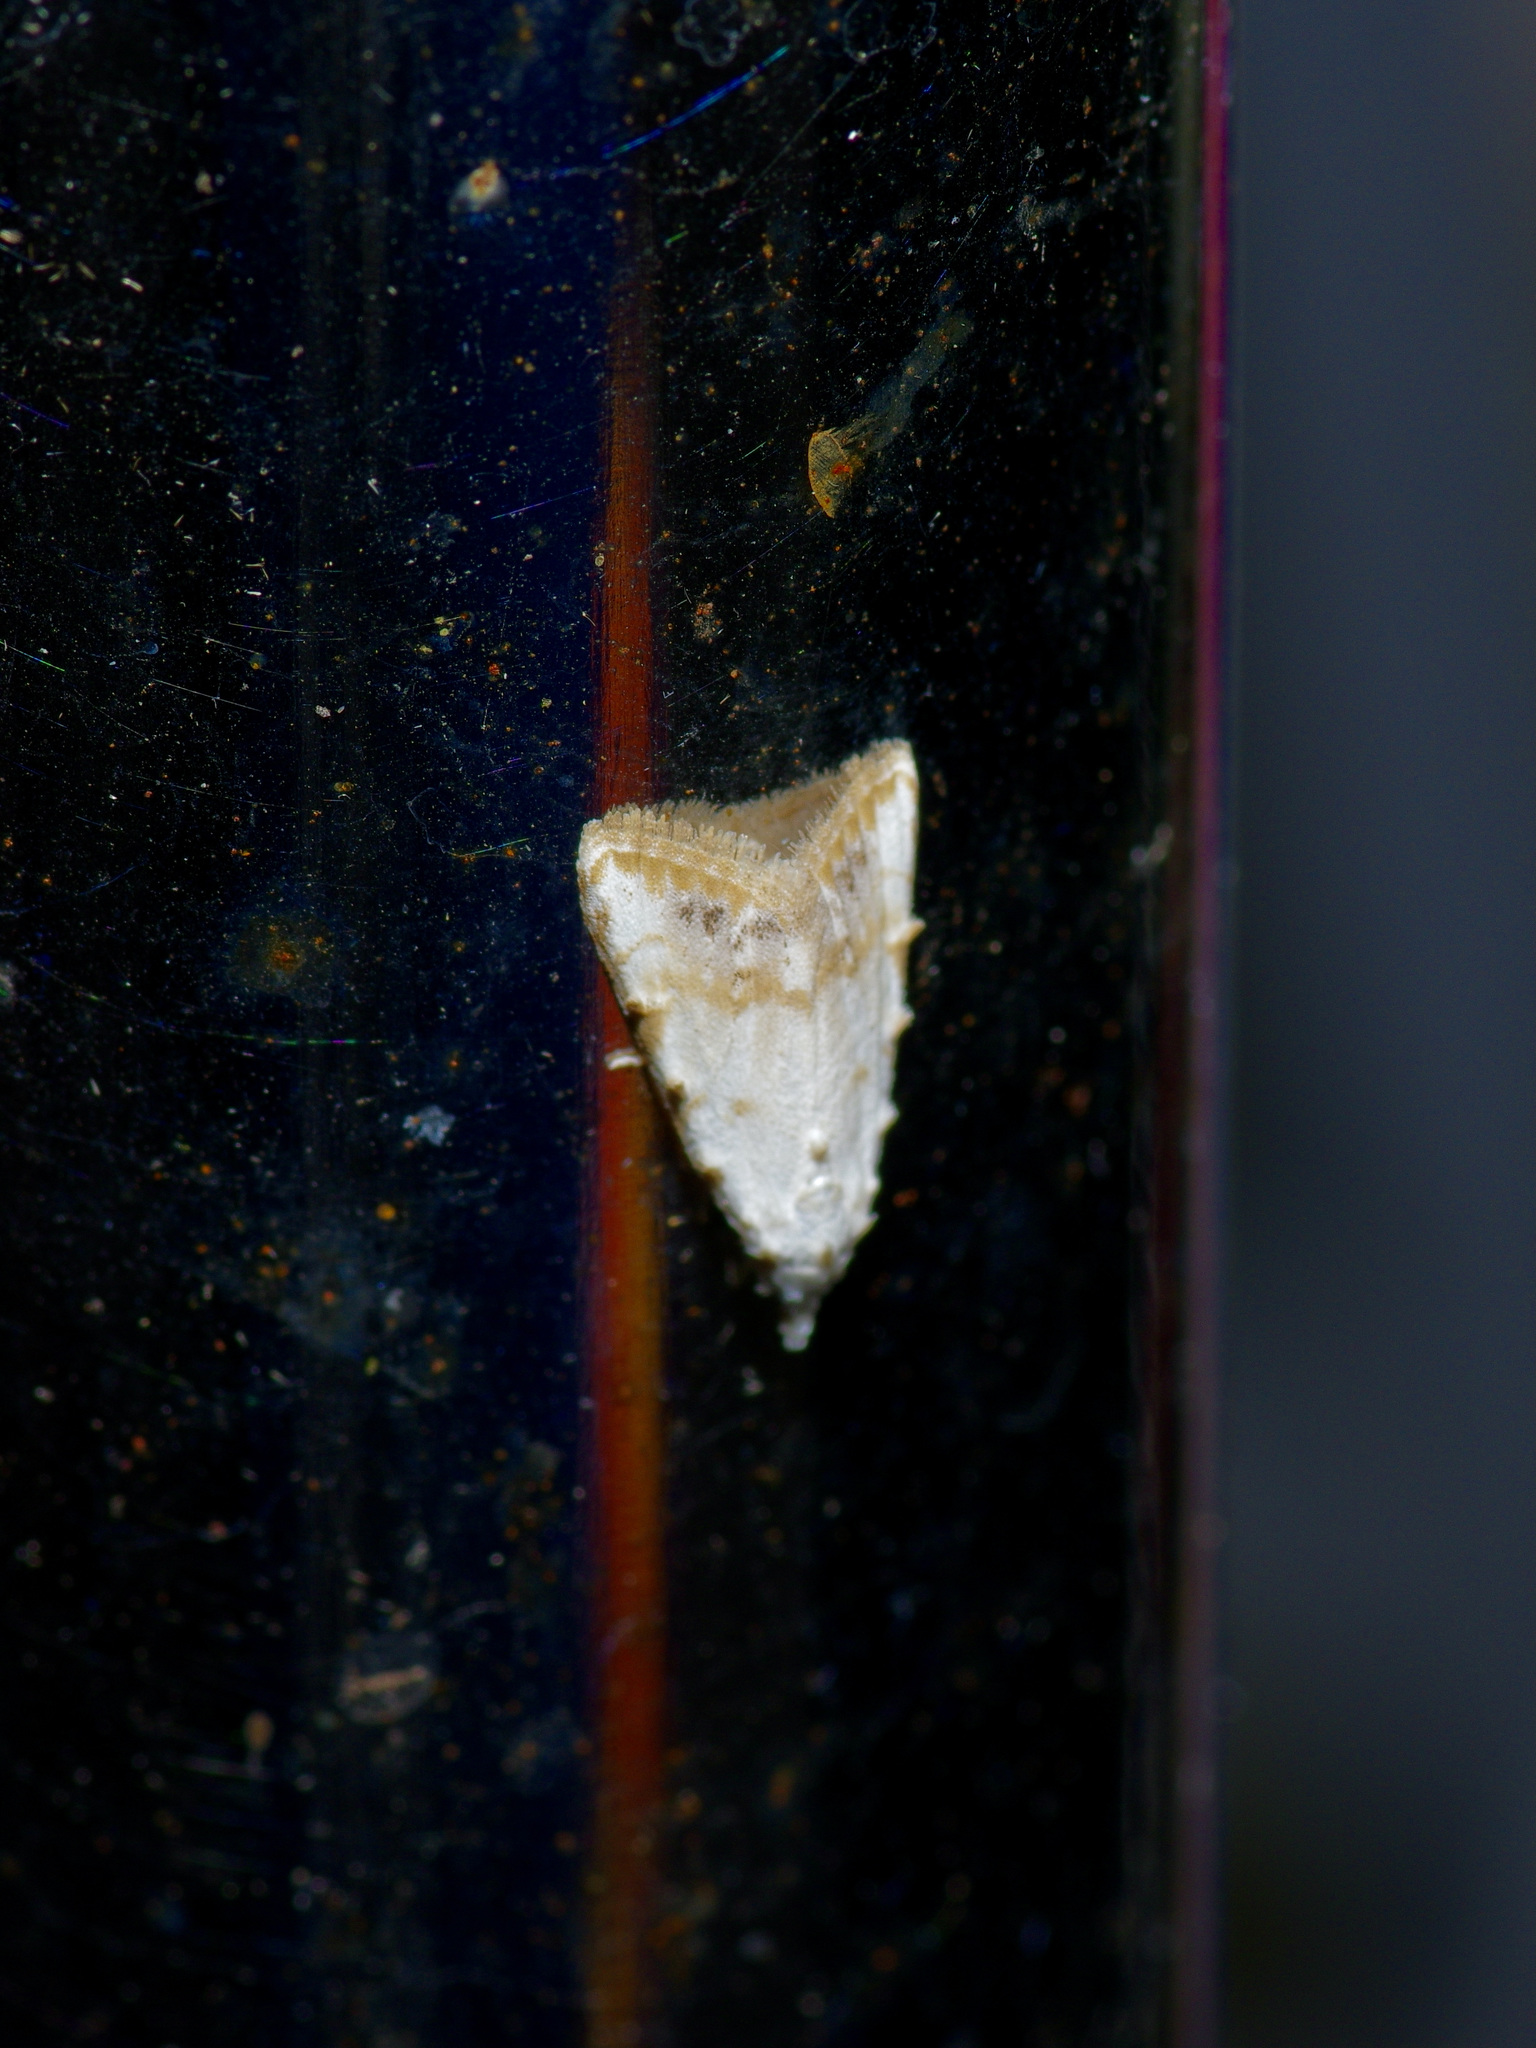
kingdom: Animalia
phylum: Arthropoda
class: Insecta
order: Lepidoptera
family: Nolidae
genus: Nola
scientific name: Nola cereella
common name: Sorghum webworm moth
